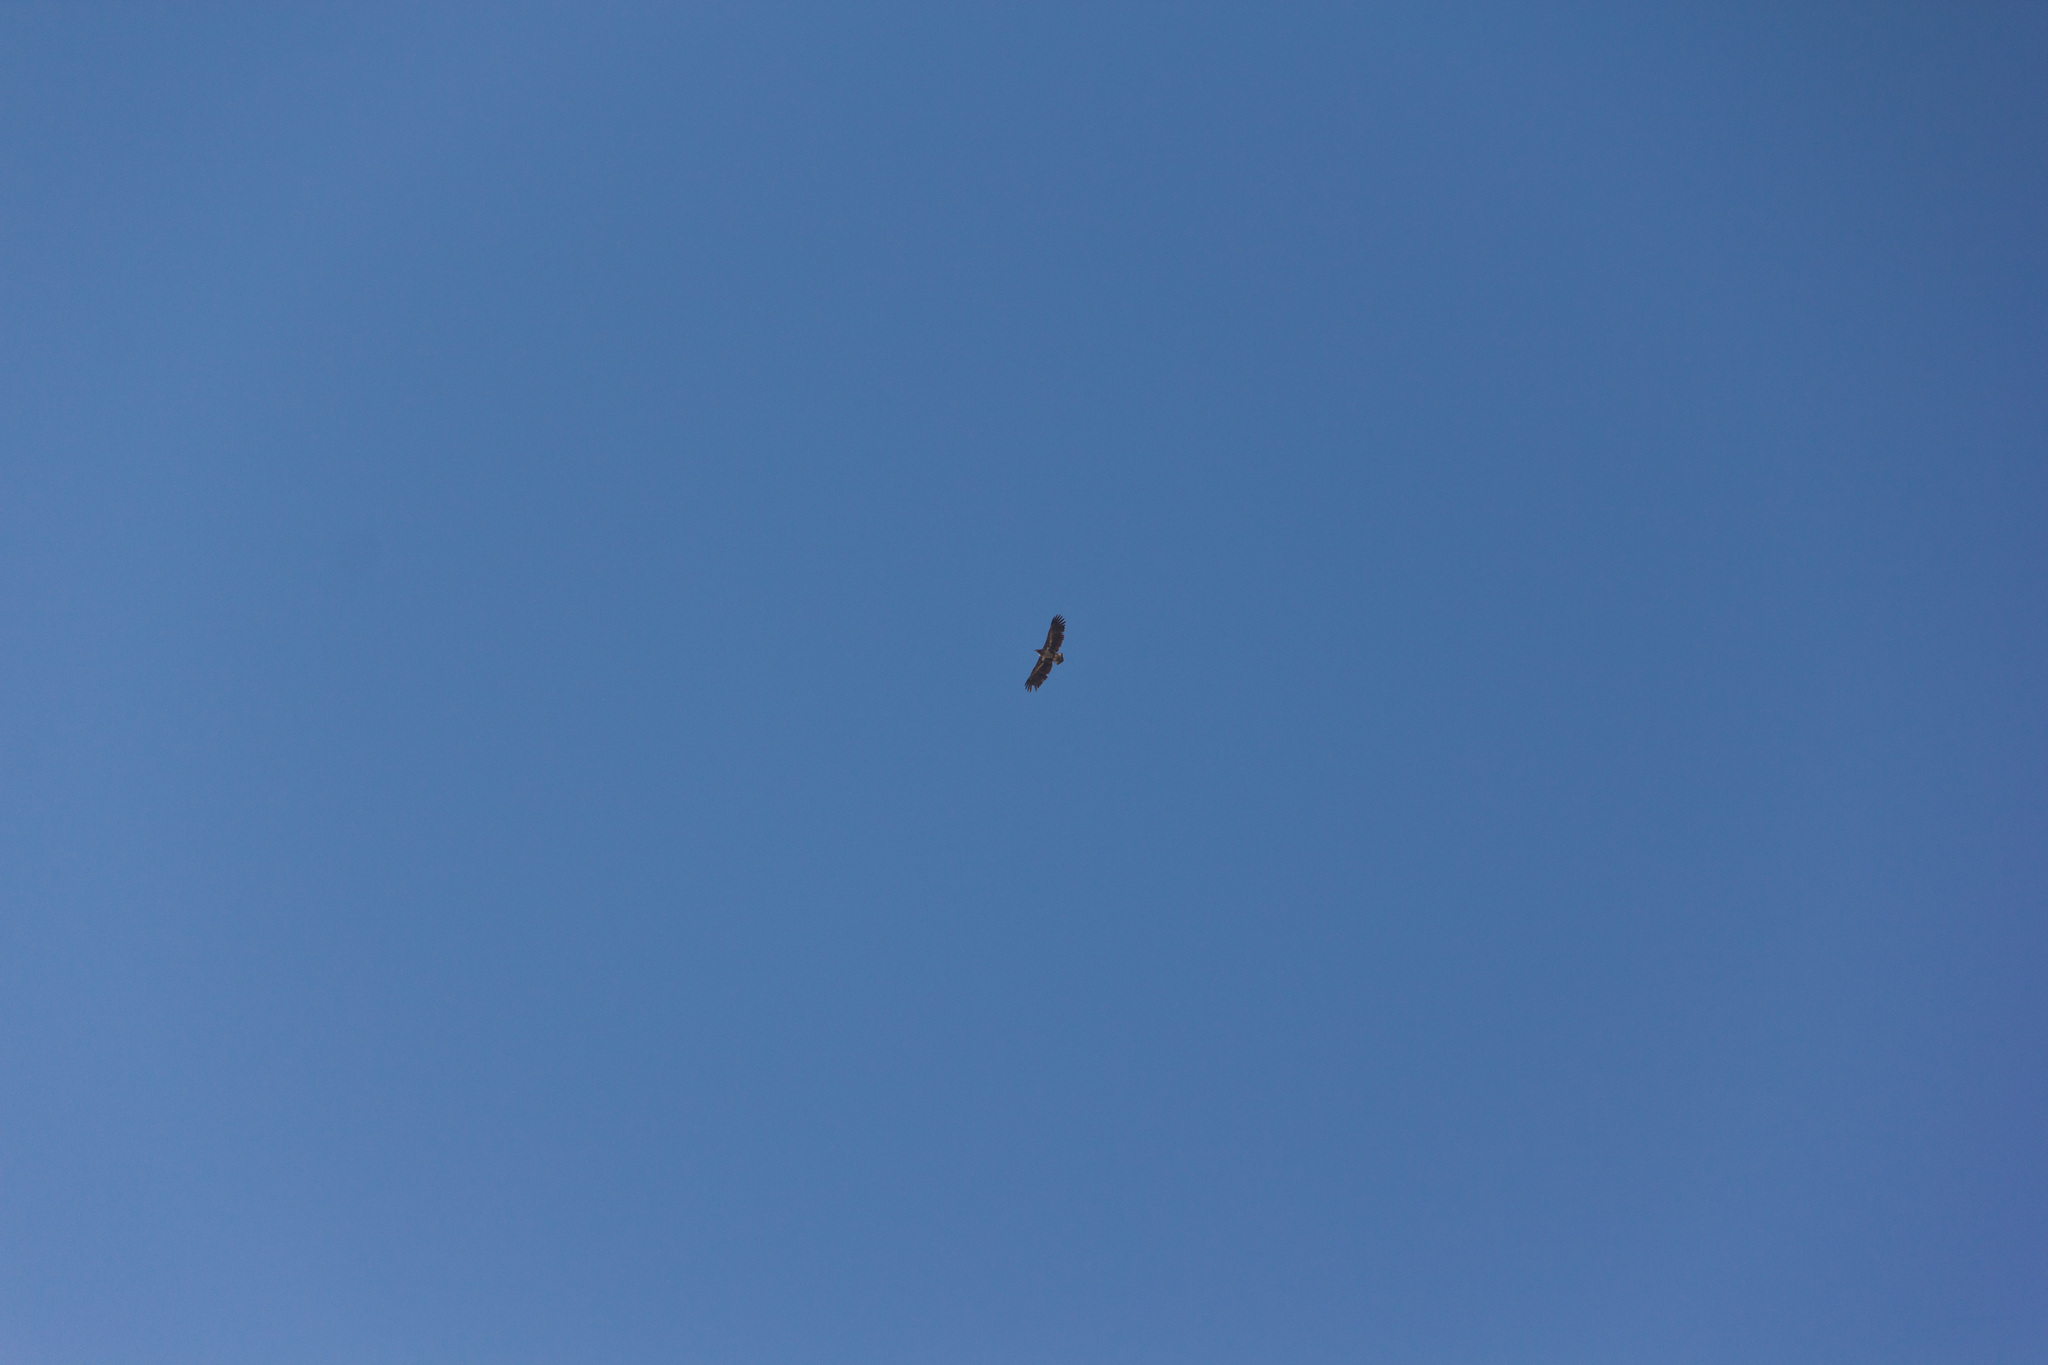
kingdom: Animalia
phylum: Chordata
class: Aves
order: Accipitriformes
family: Accipitridae
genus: Haliaeetus
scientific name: Haliaeetus albicilla
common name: White-tailed eagle
